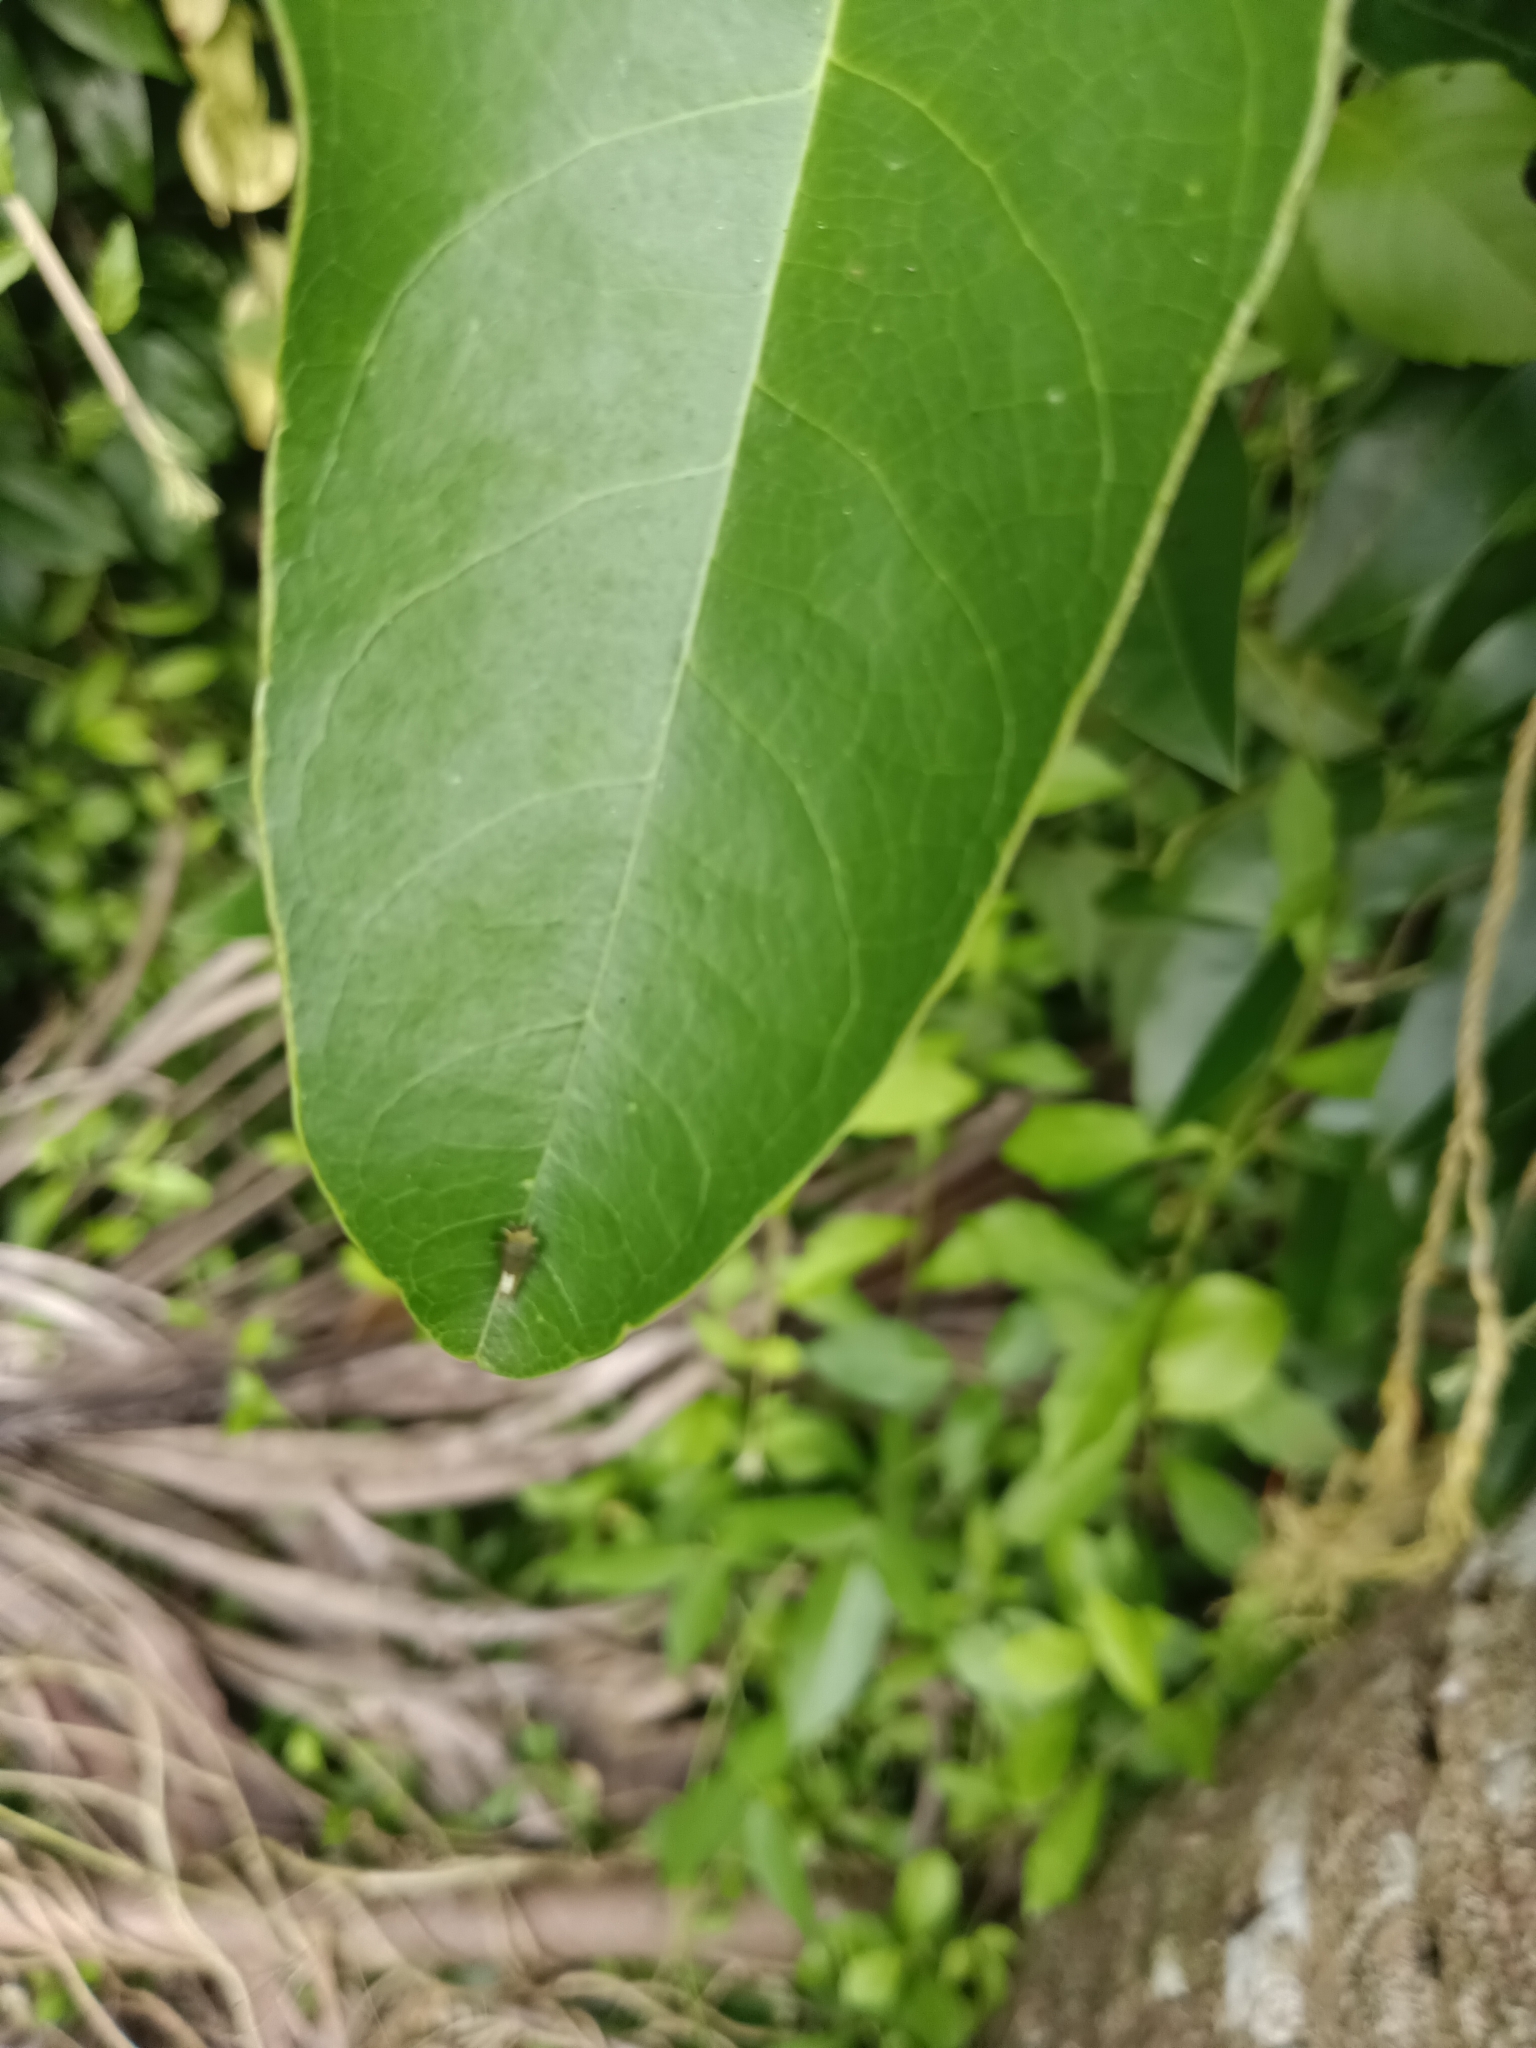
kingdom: Animalia
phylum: Arthropoda
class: Insecta
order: Lepidoptera
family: Papilionidae
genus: Graphium
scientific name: Graphium agamemnon
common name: Tailed jay
